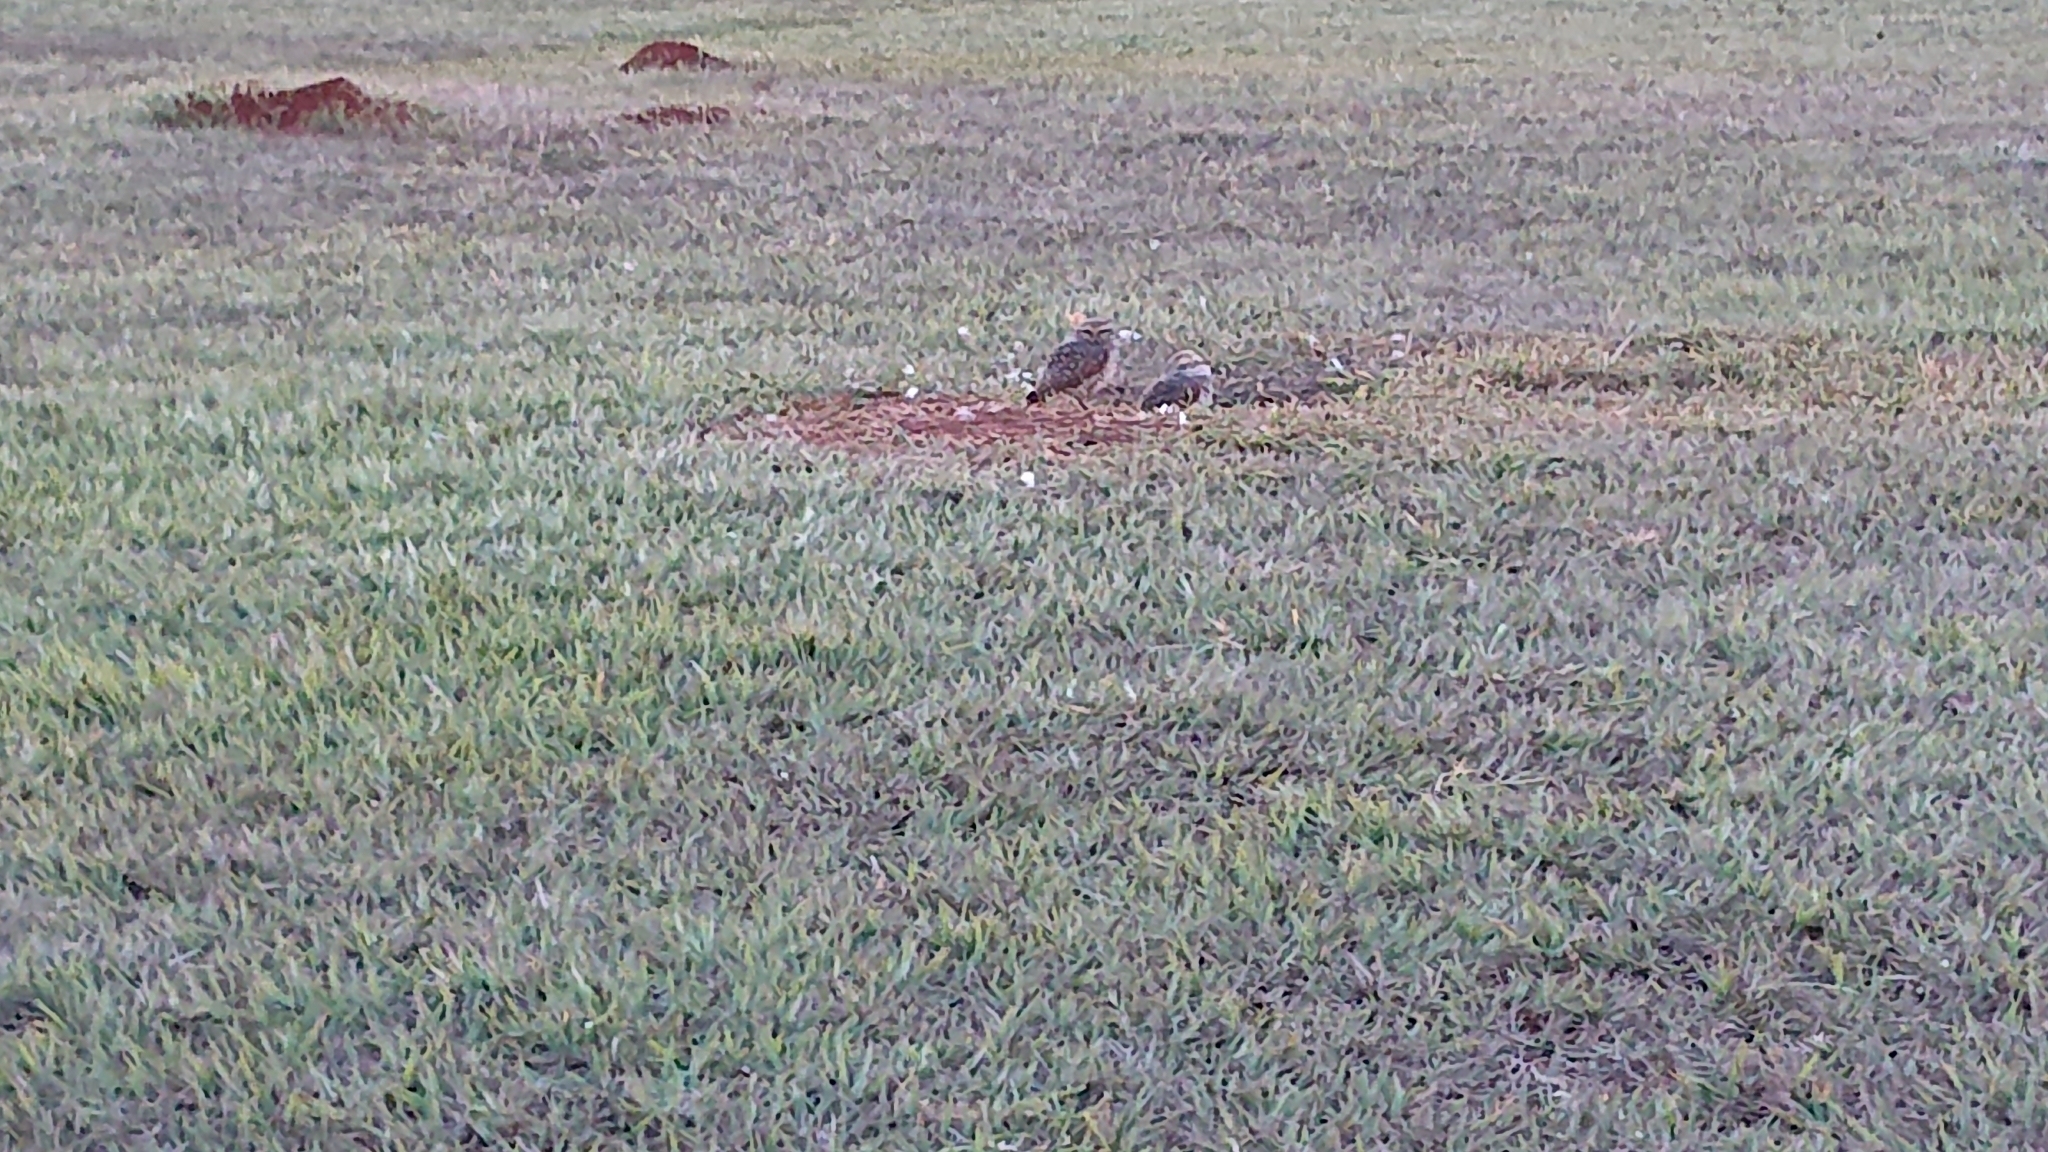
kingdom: Animalia
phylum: Chordata
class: Aves
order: Strigiformes
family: Strigidae
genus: Athene
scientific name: Athene cunicularia
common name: Burrowing owl
